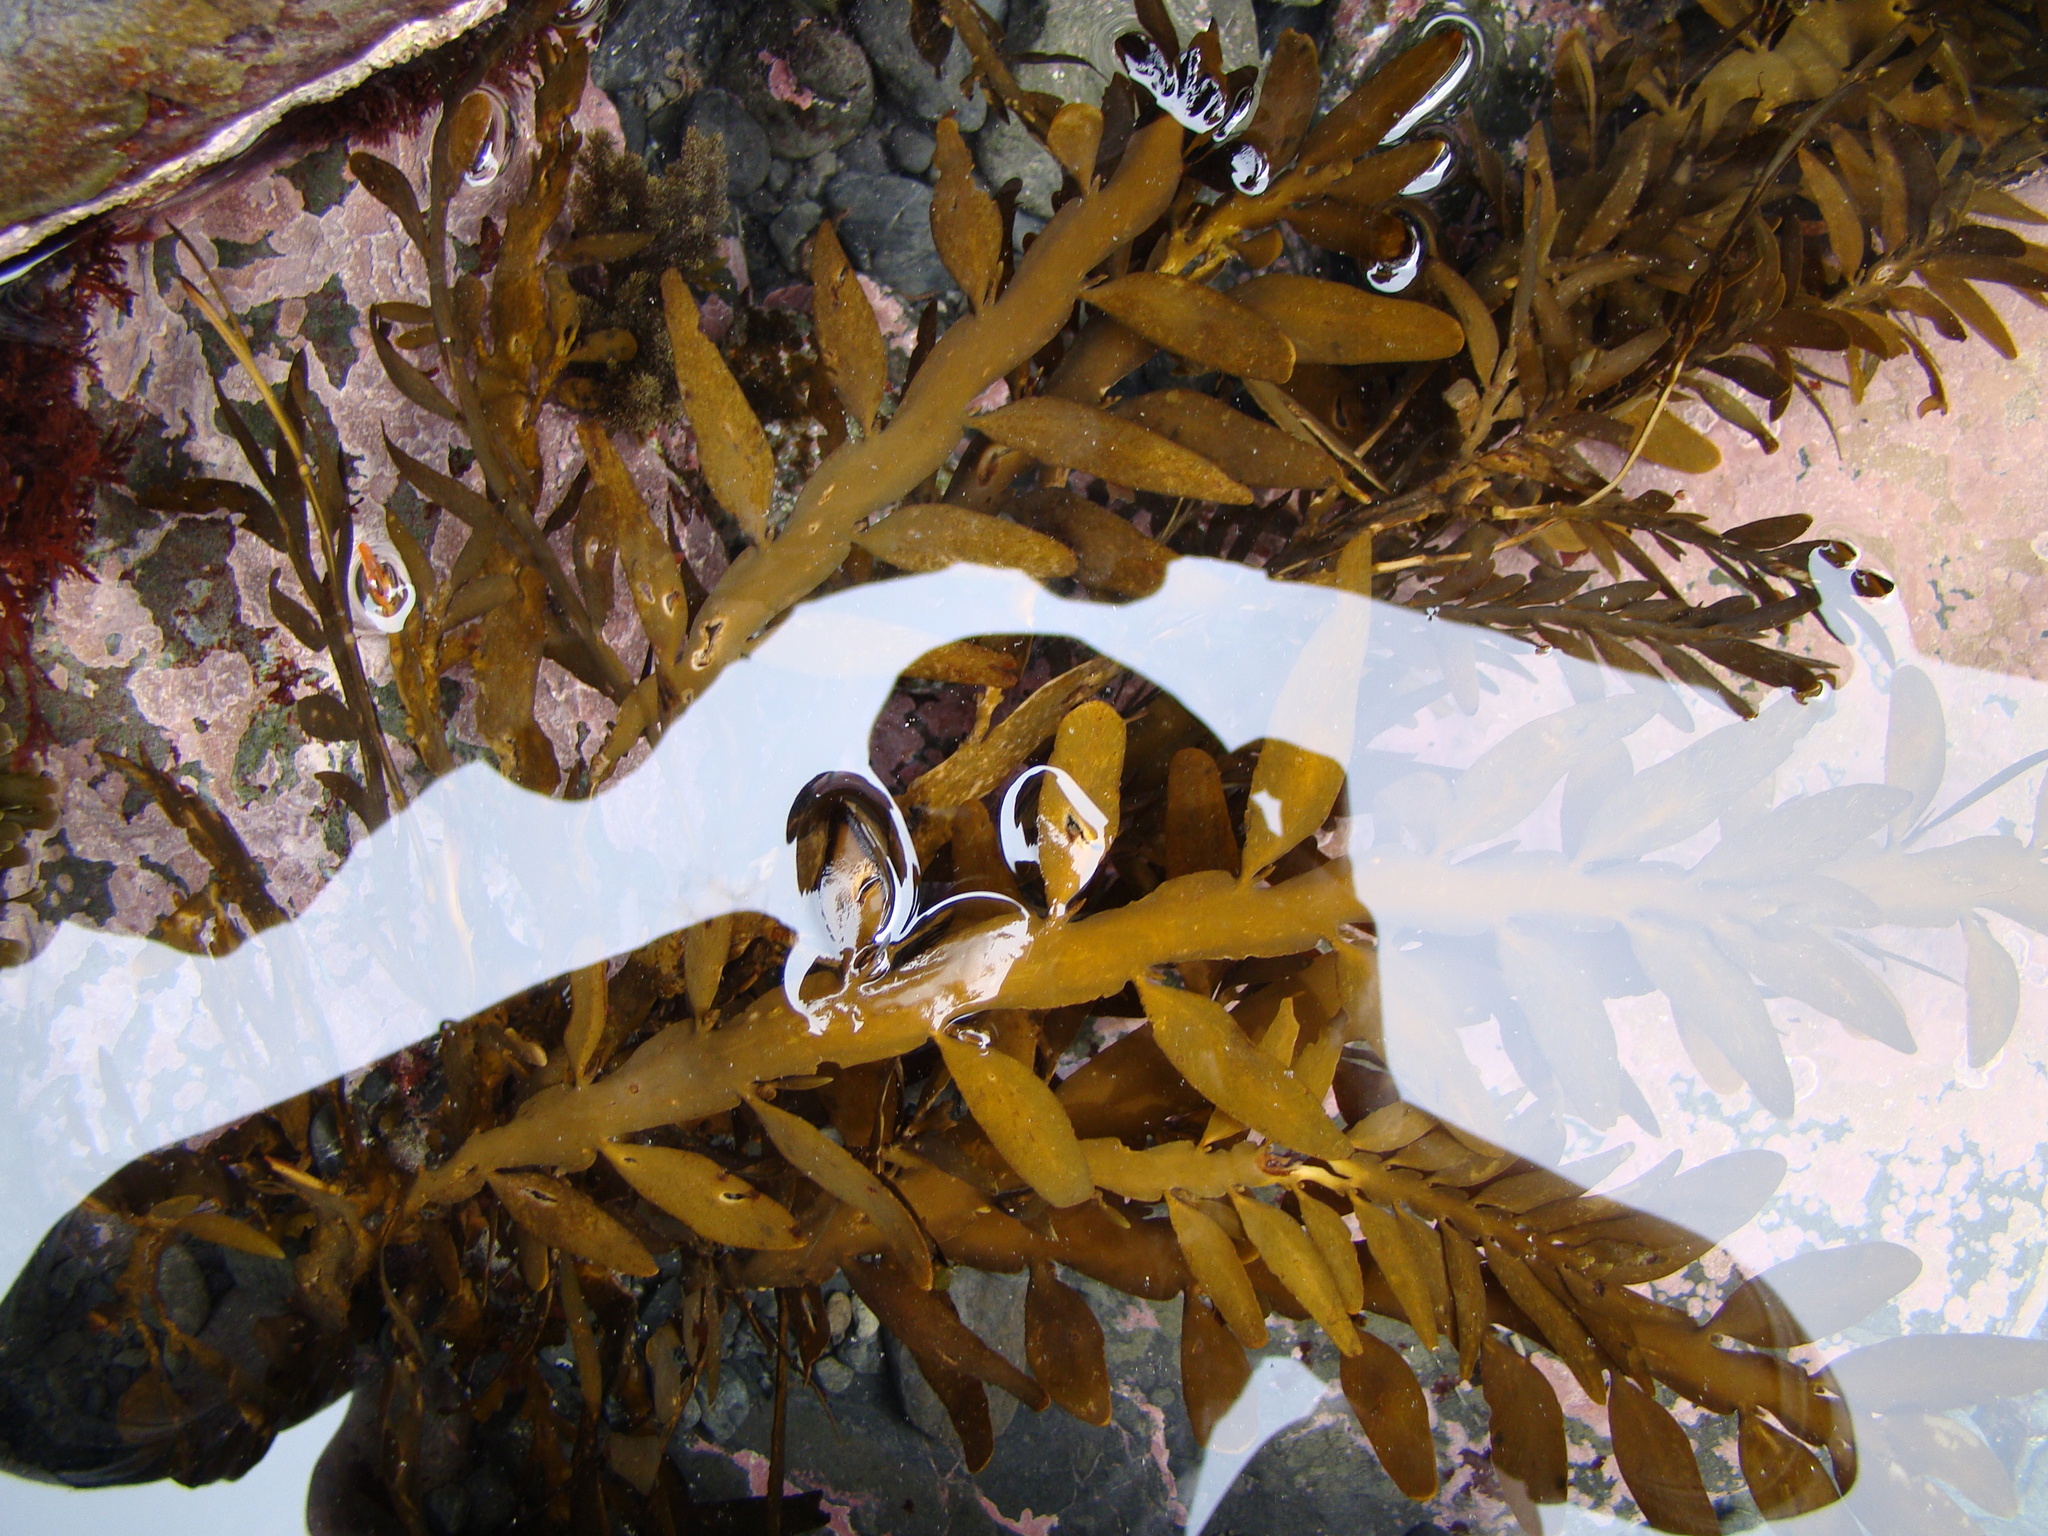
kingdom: Chromista
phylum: Ochrophyta
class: Phaeophyceae
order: Fucales
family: Sargassaceae
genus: Carpophyllum
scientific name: Carpophyllum maschalocarpum
